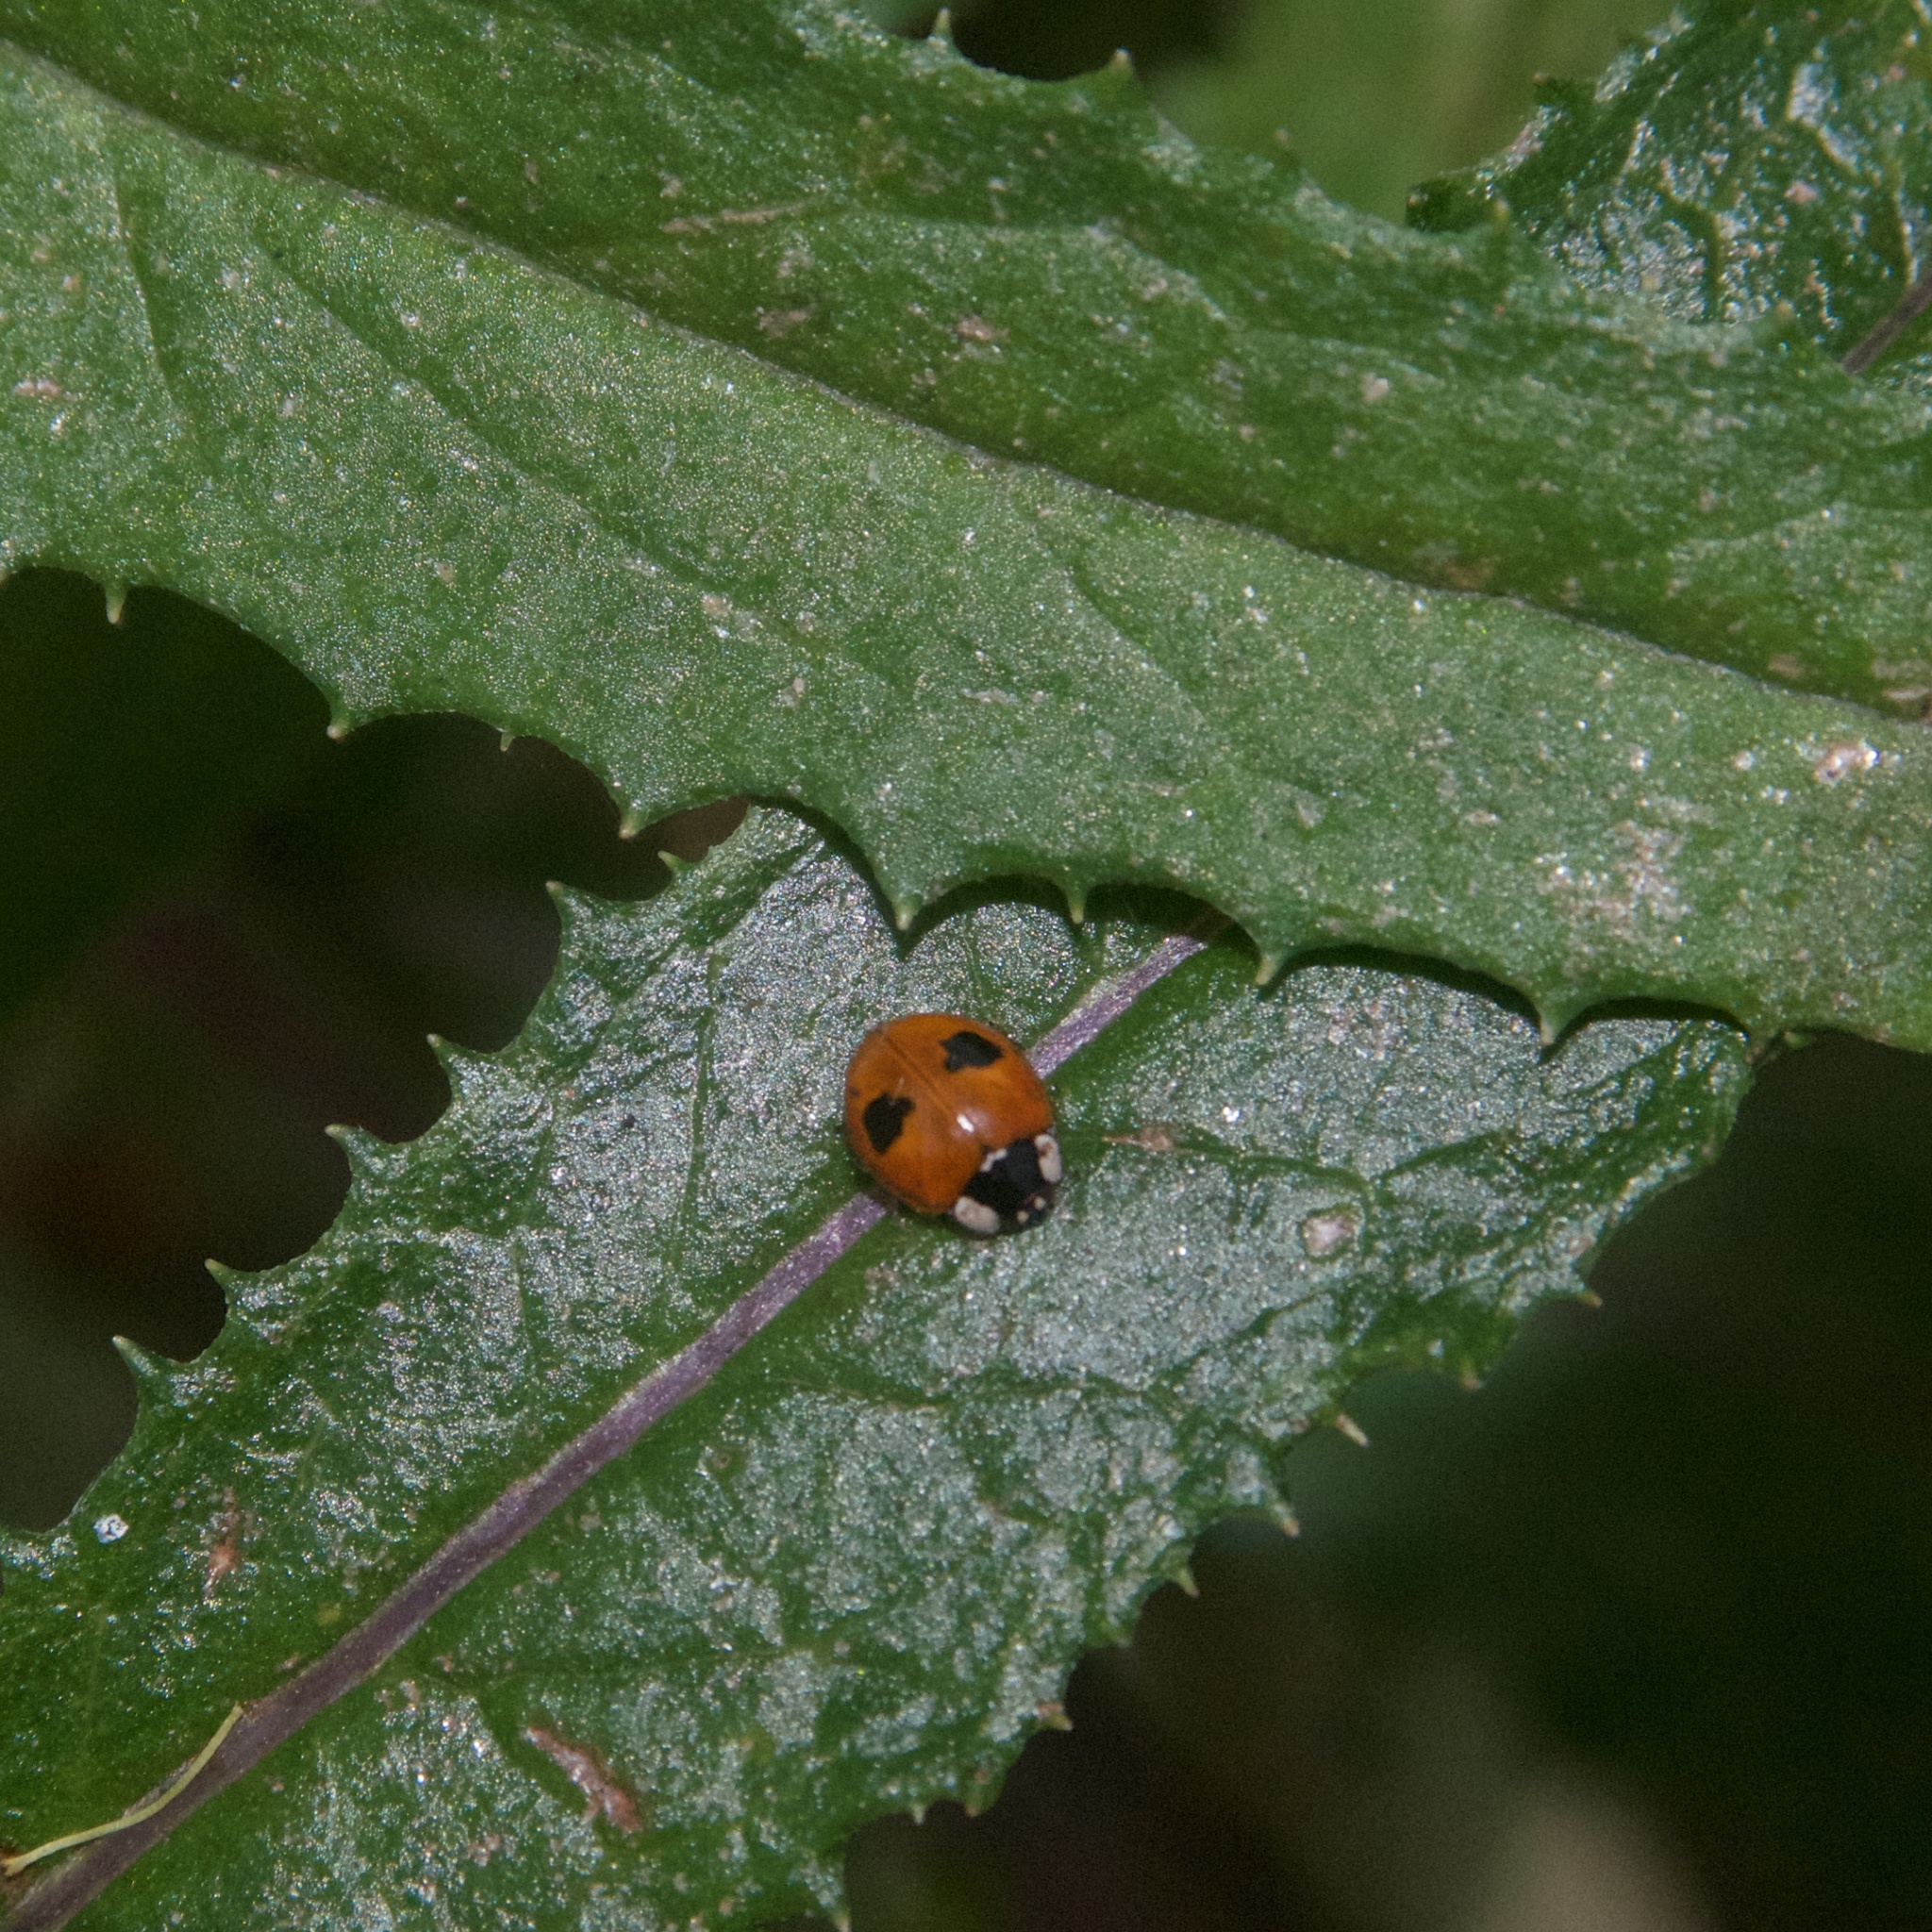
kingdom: Animalia
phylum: Arthropoda
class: Insecta
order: Coleoptera
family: Coccinellidae
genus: Adalia
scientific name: Adalia bipunctata
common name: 2-spot ladybird
